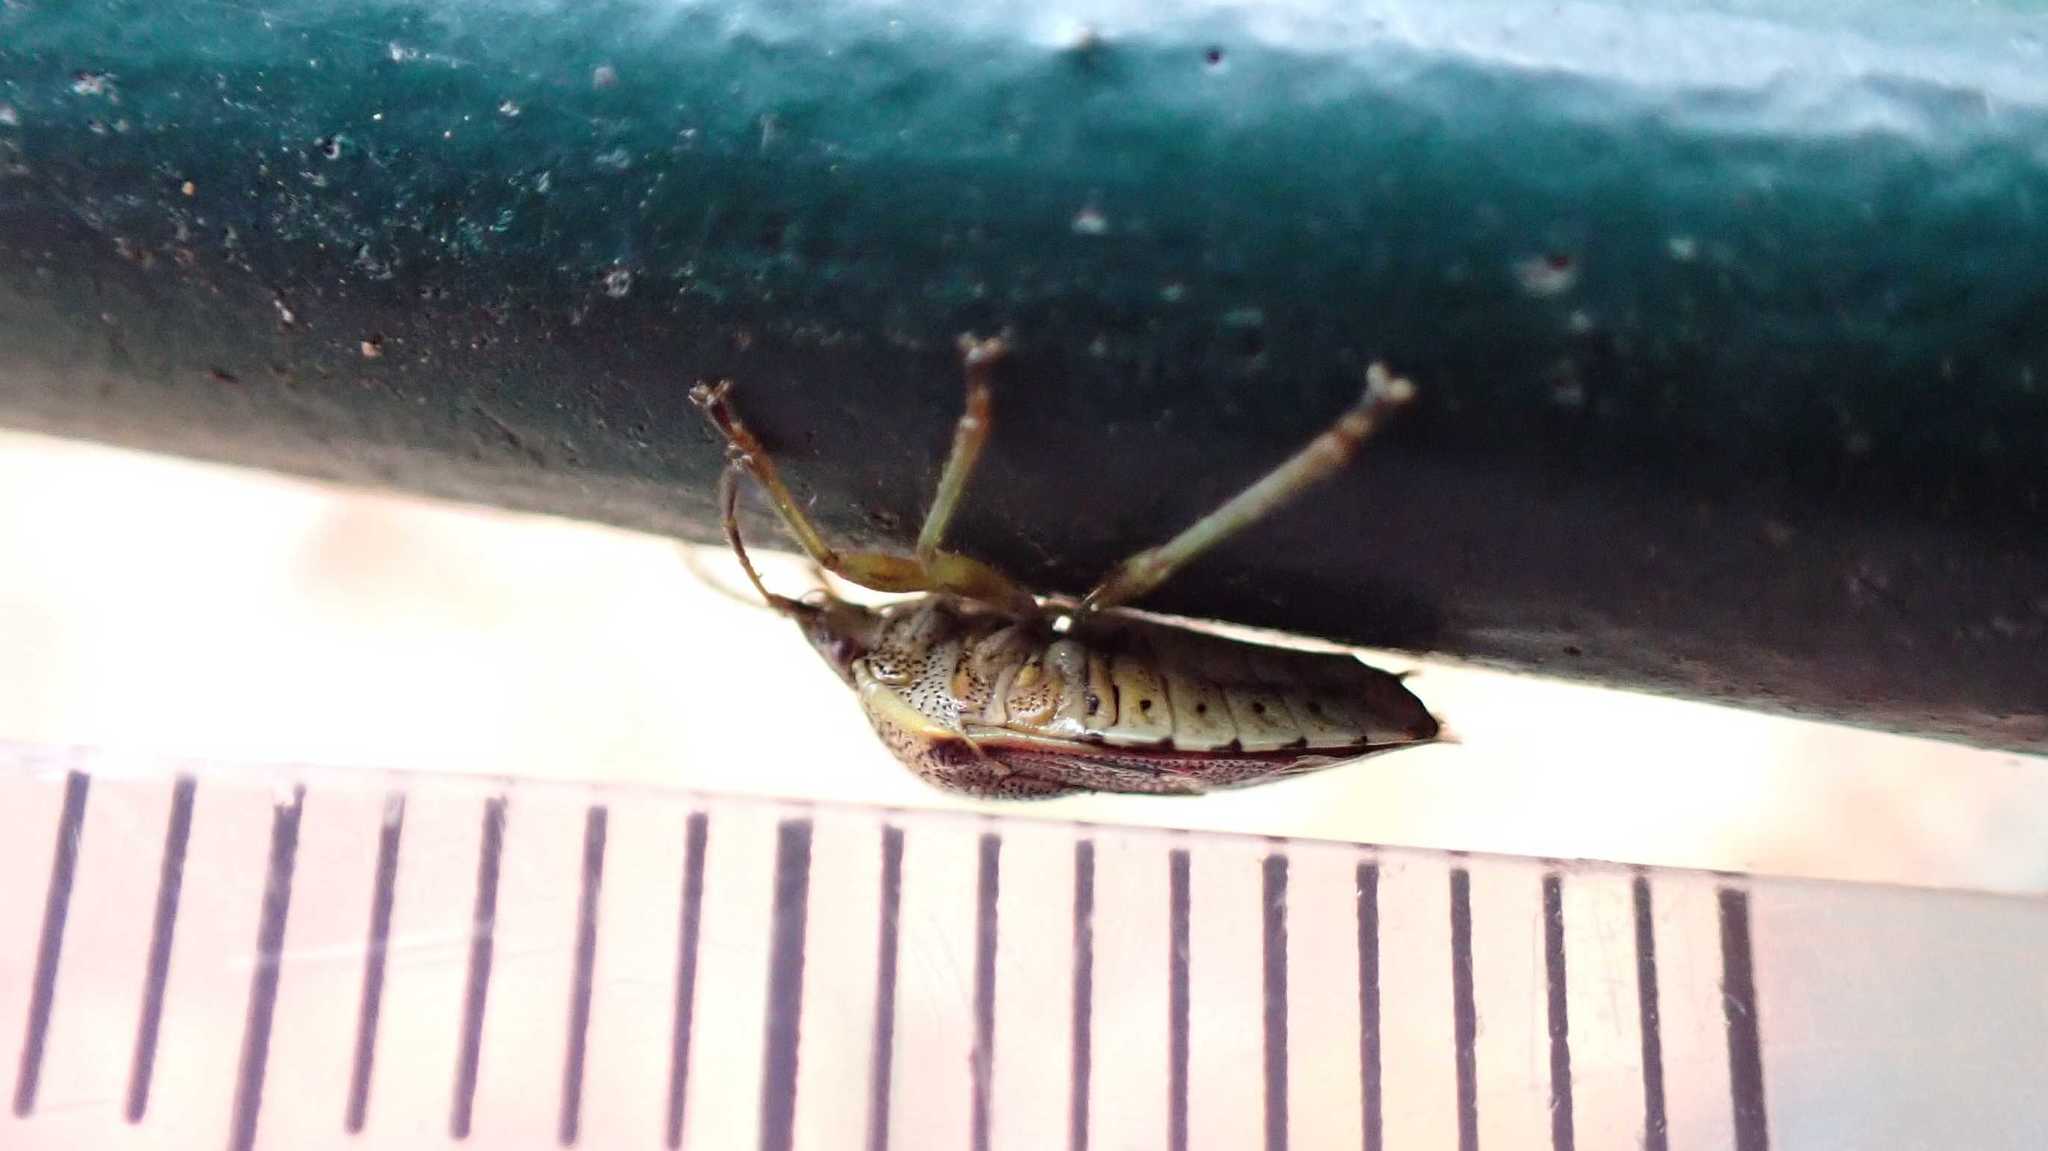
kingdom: Animalia
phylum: Arthropoda
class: Insecta
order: Hemiptera
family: Acanthosomatidae
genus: Elasmucha
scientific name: Elasmucha grisea
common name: Parent bug
